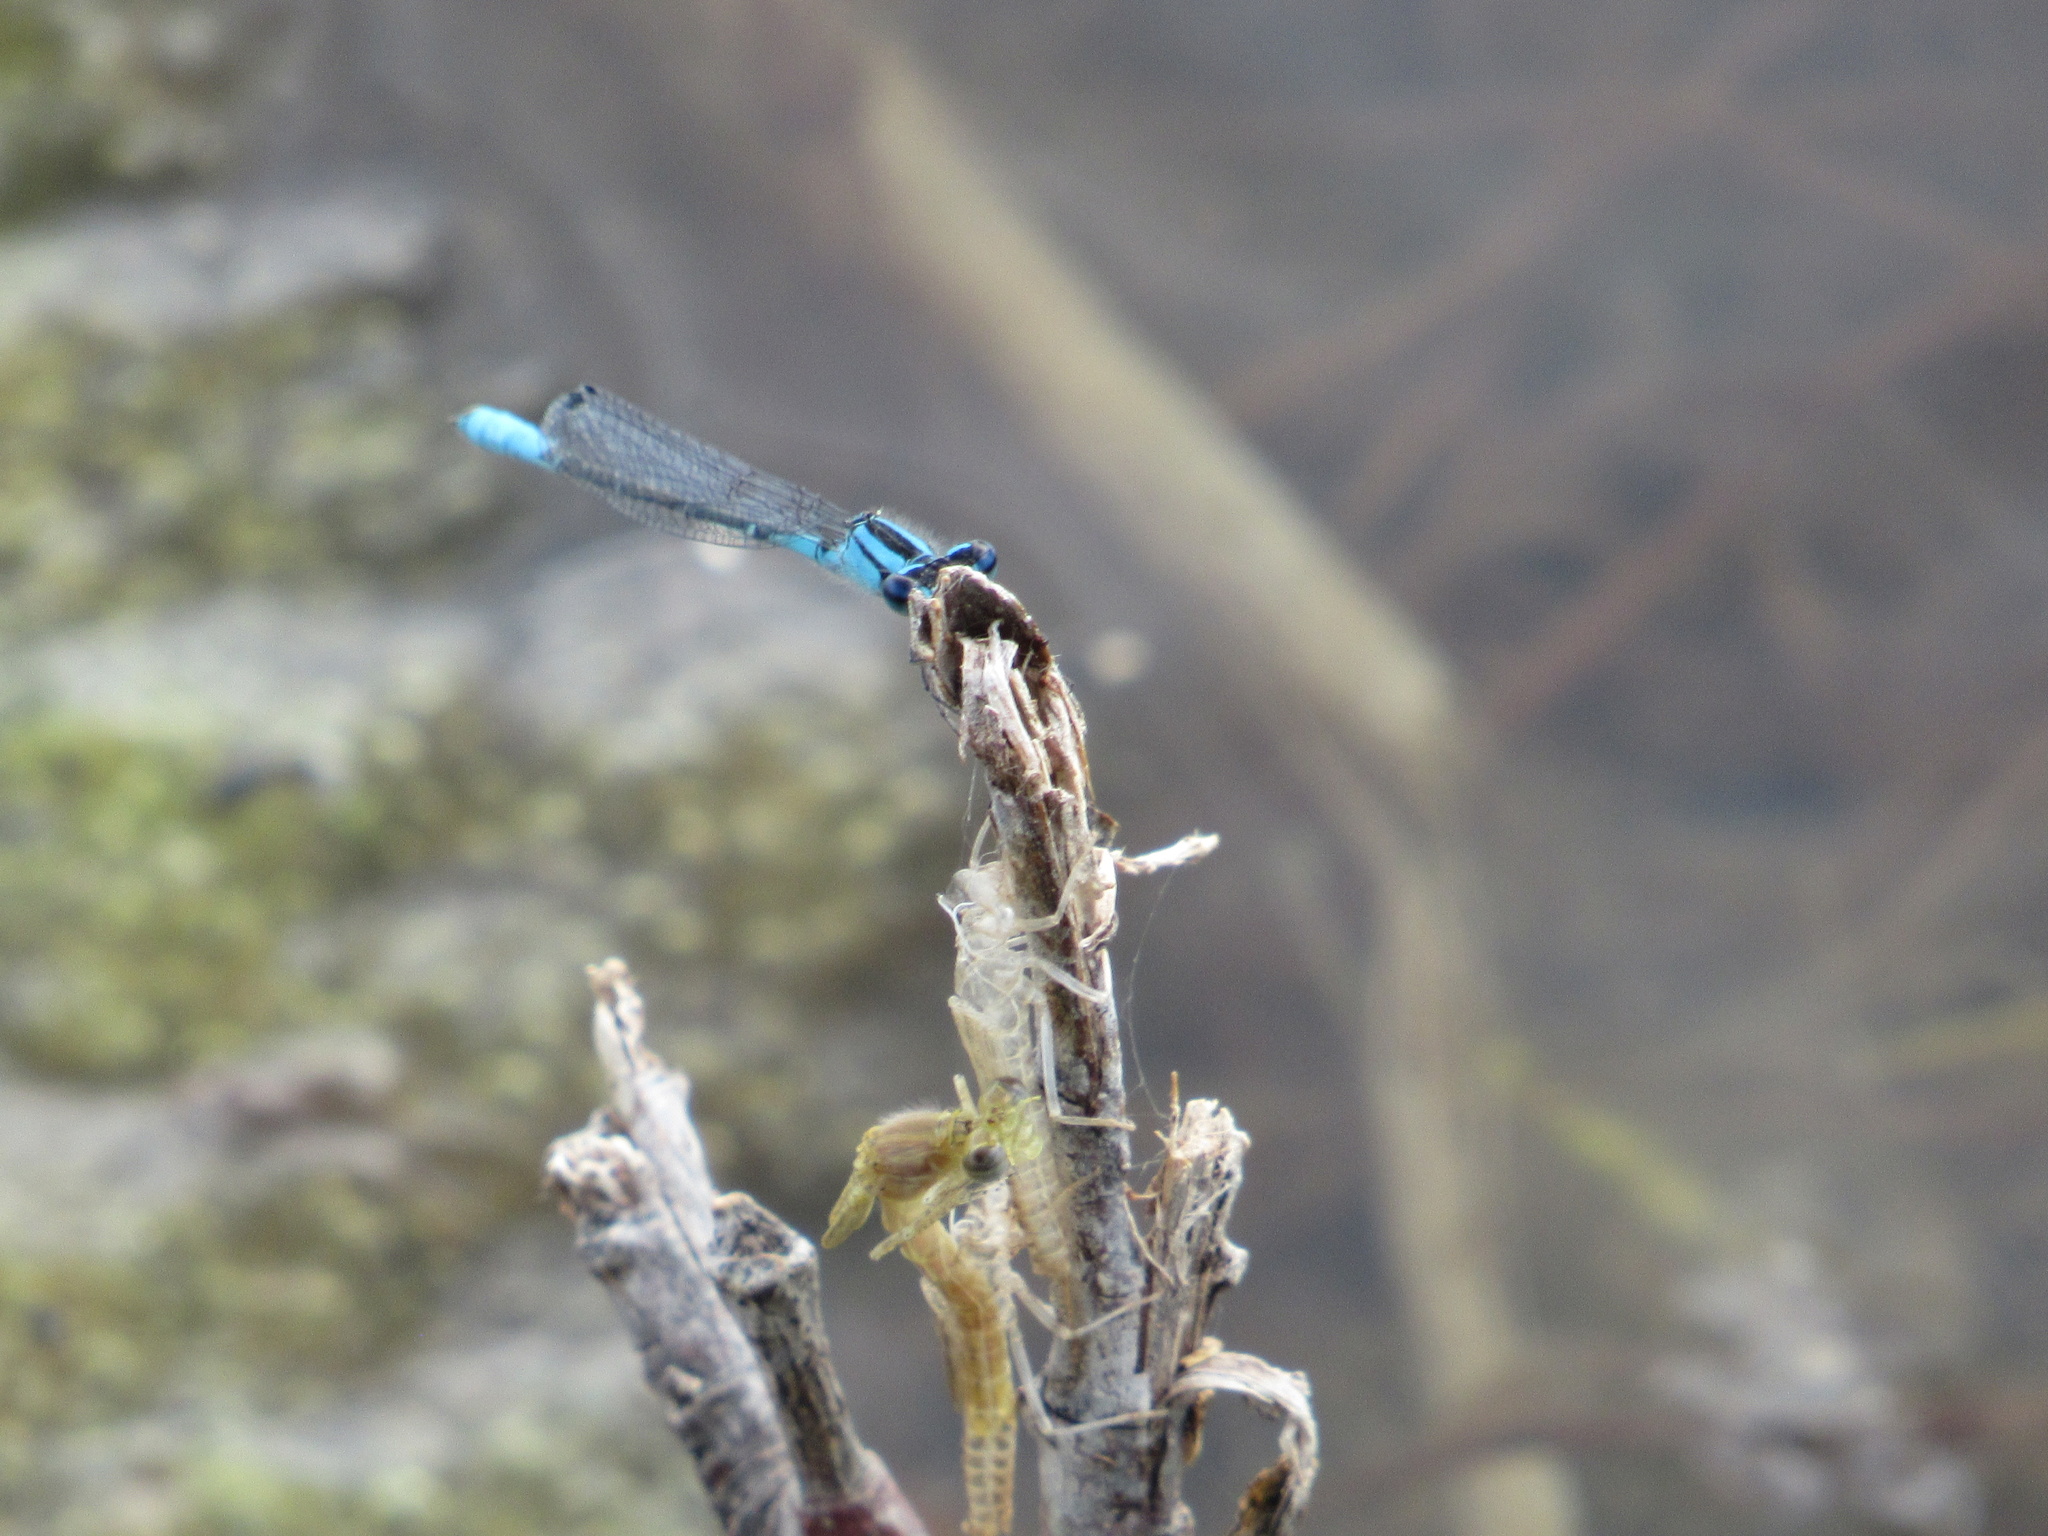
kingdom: Animalia
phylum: Arthropoda
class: Insecta
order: Odonata
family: Coenagrionidae
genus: Enallagma
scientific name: Enallagma aspersum
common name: Azure bluet
